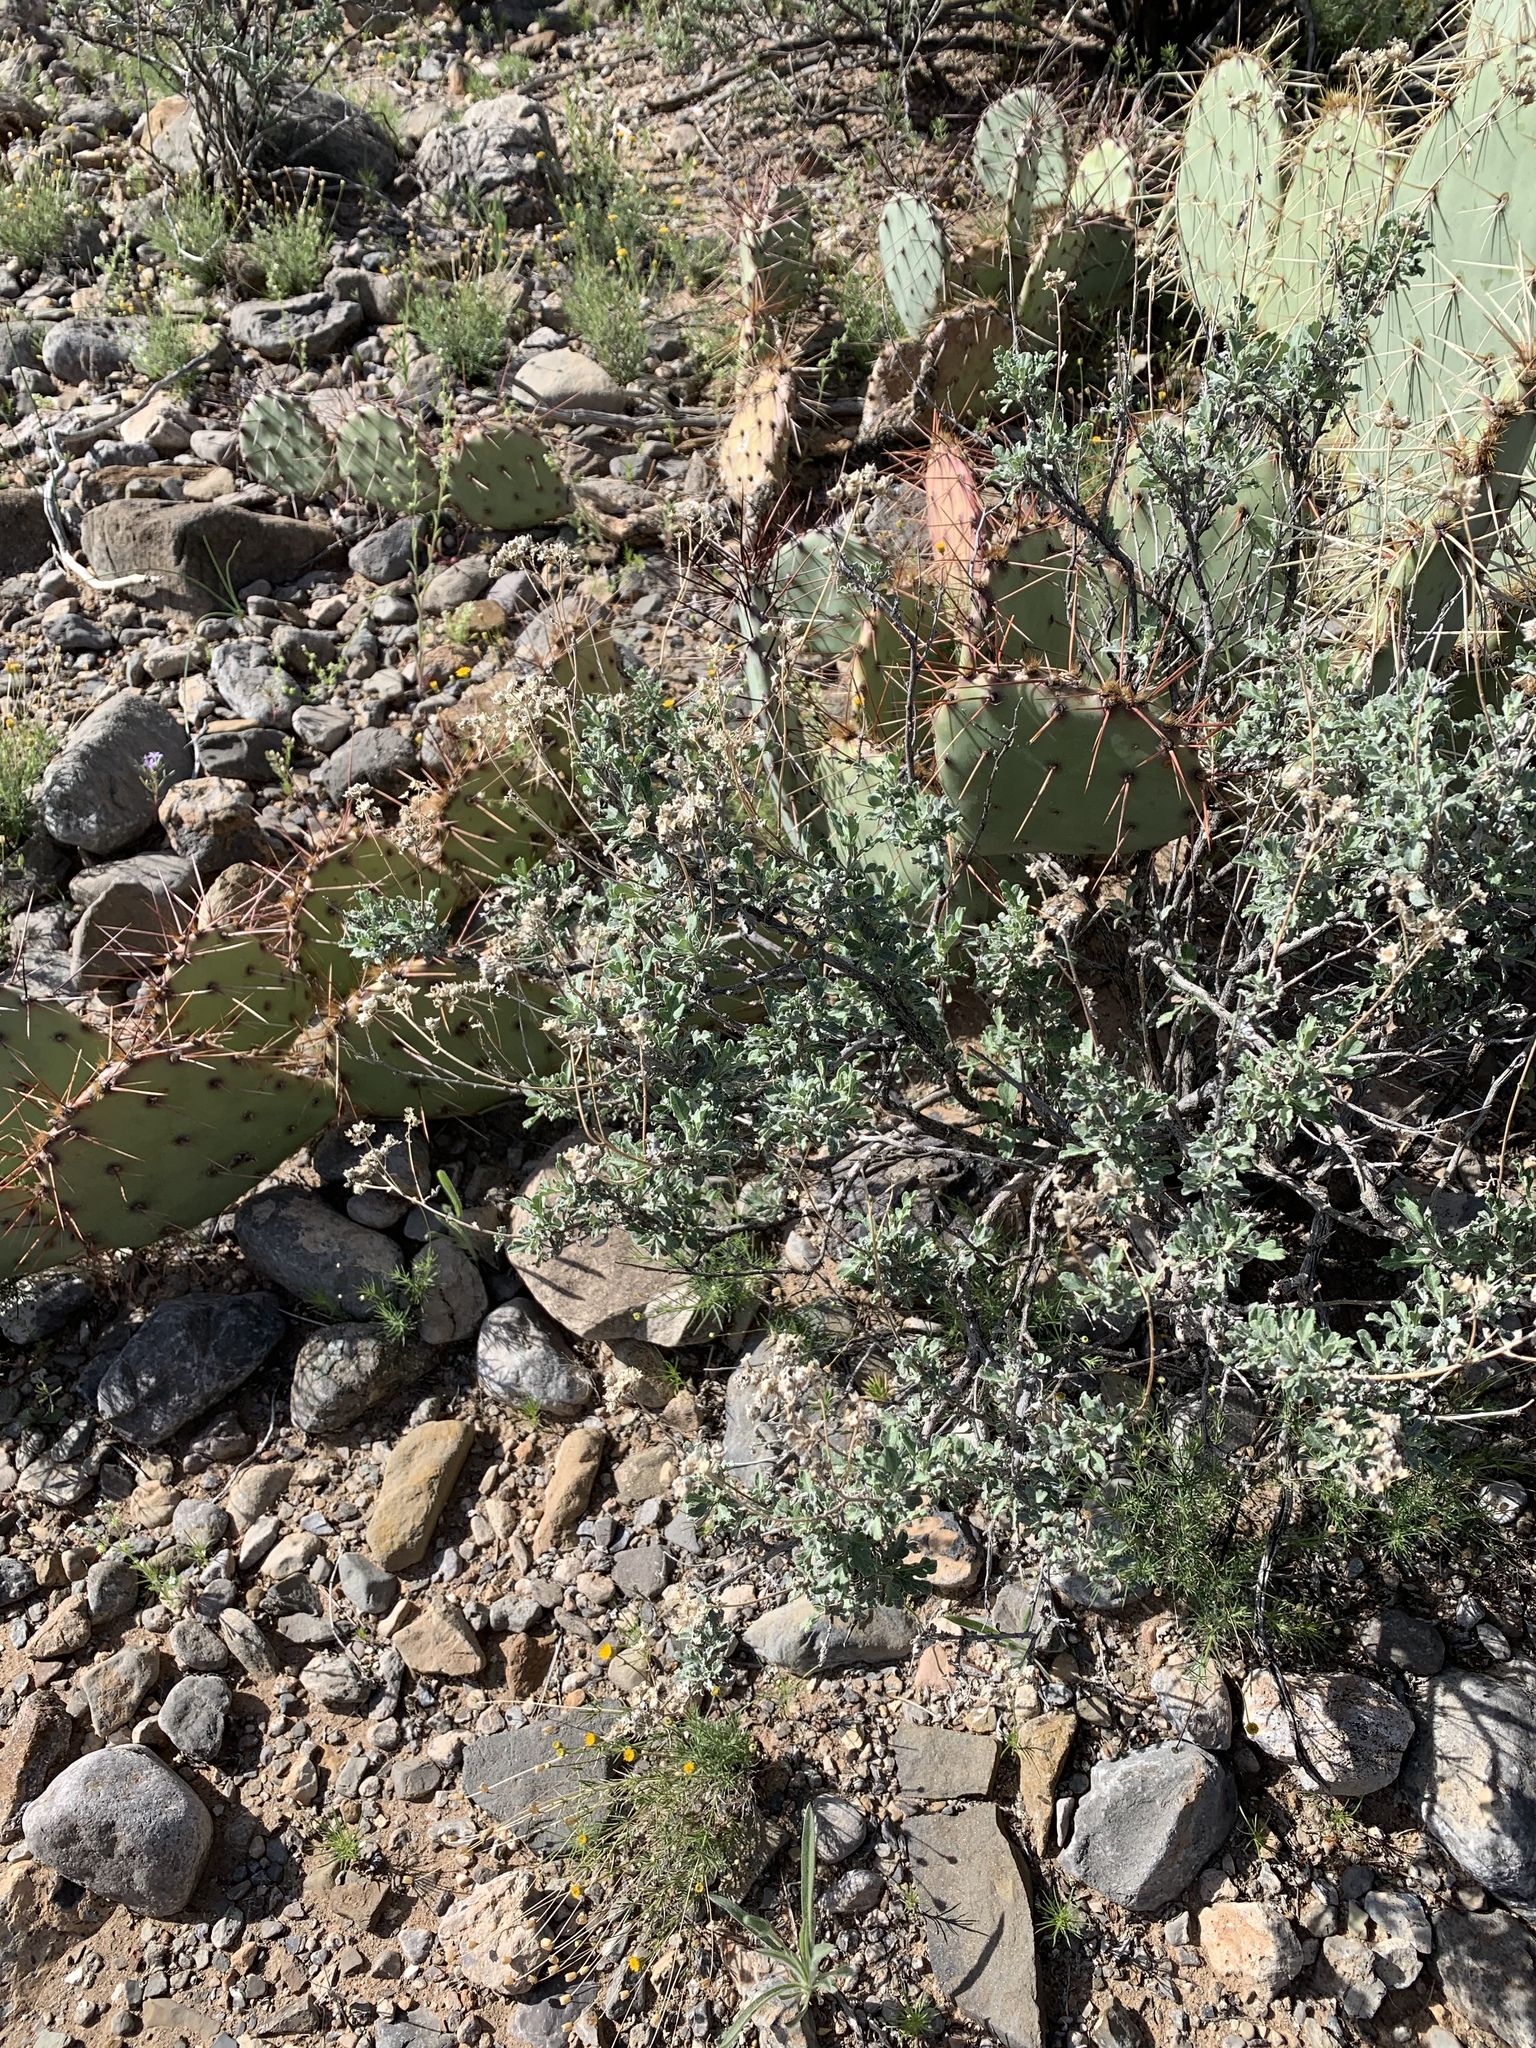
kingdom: Plantae
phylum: Tracheophyta
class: Magnoliopsida
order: Asterales
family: Asteraceae
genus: Parthenium
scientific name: Parthenium incanum
